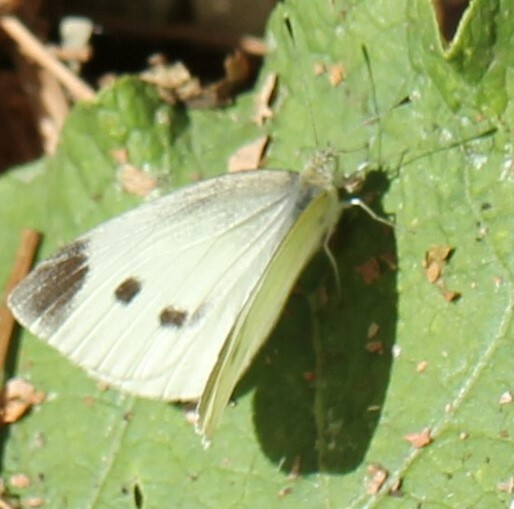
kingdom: Animalia
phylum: Arthropoda
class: Insecta
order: Lepidoptera
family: Pieridae
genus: Pieris
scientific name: Pieris rapae
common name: Small white
